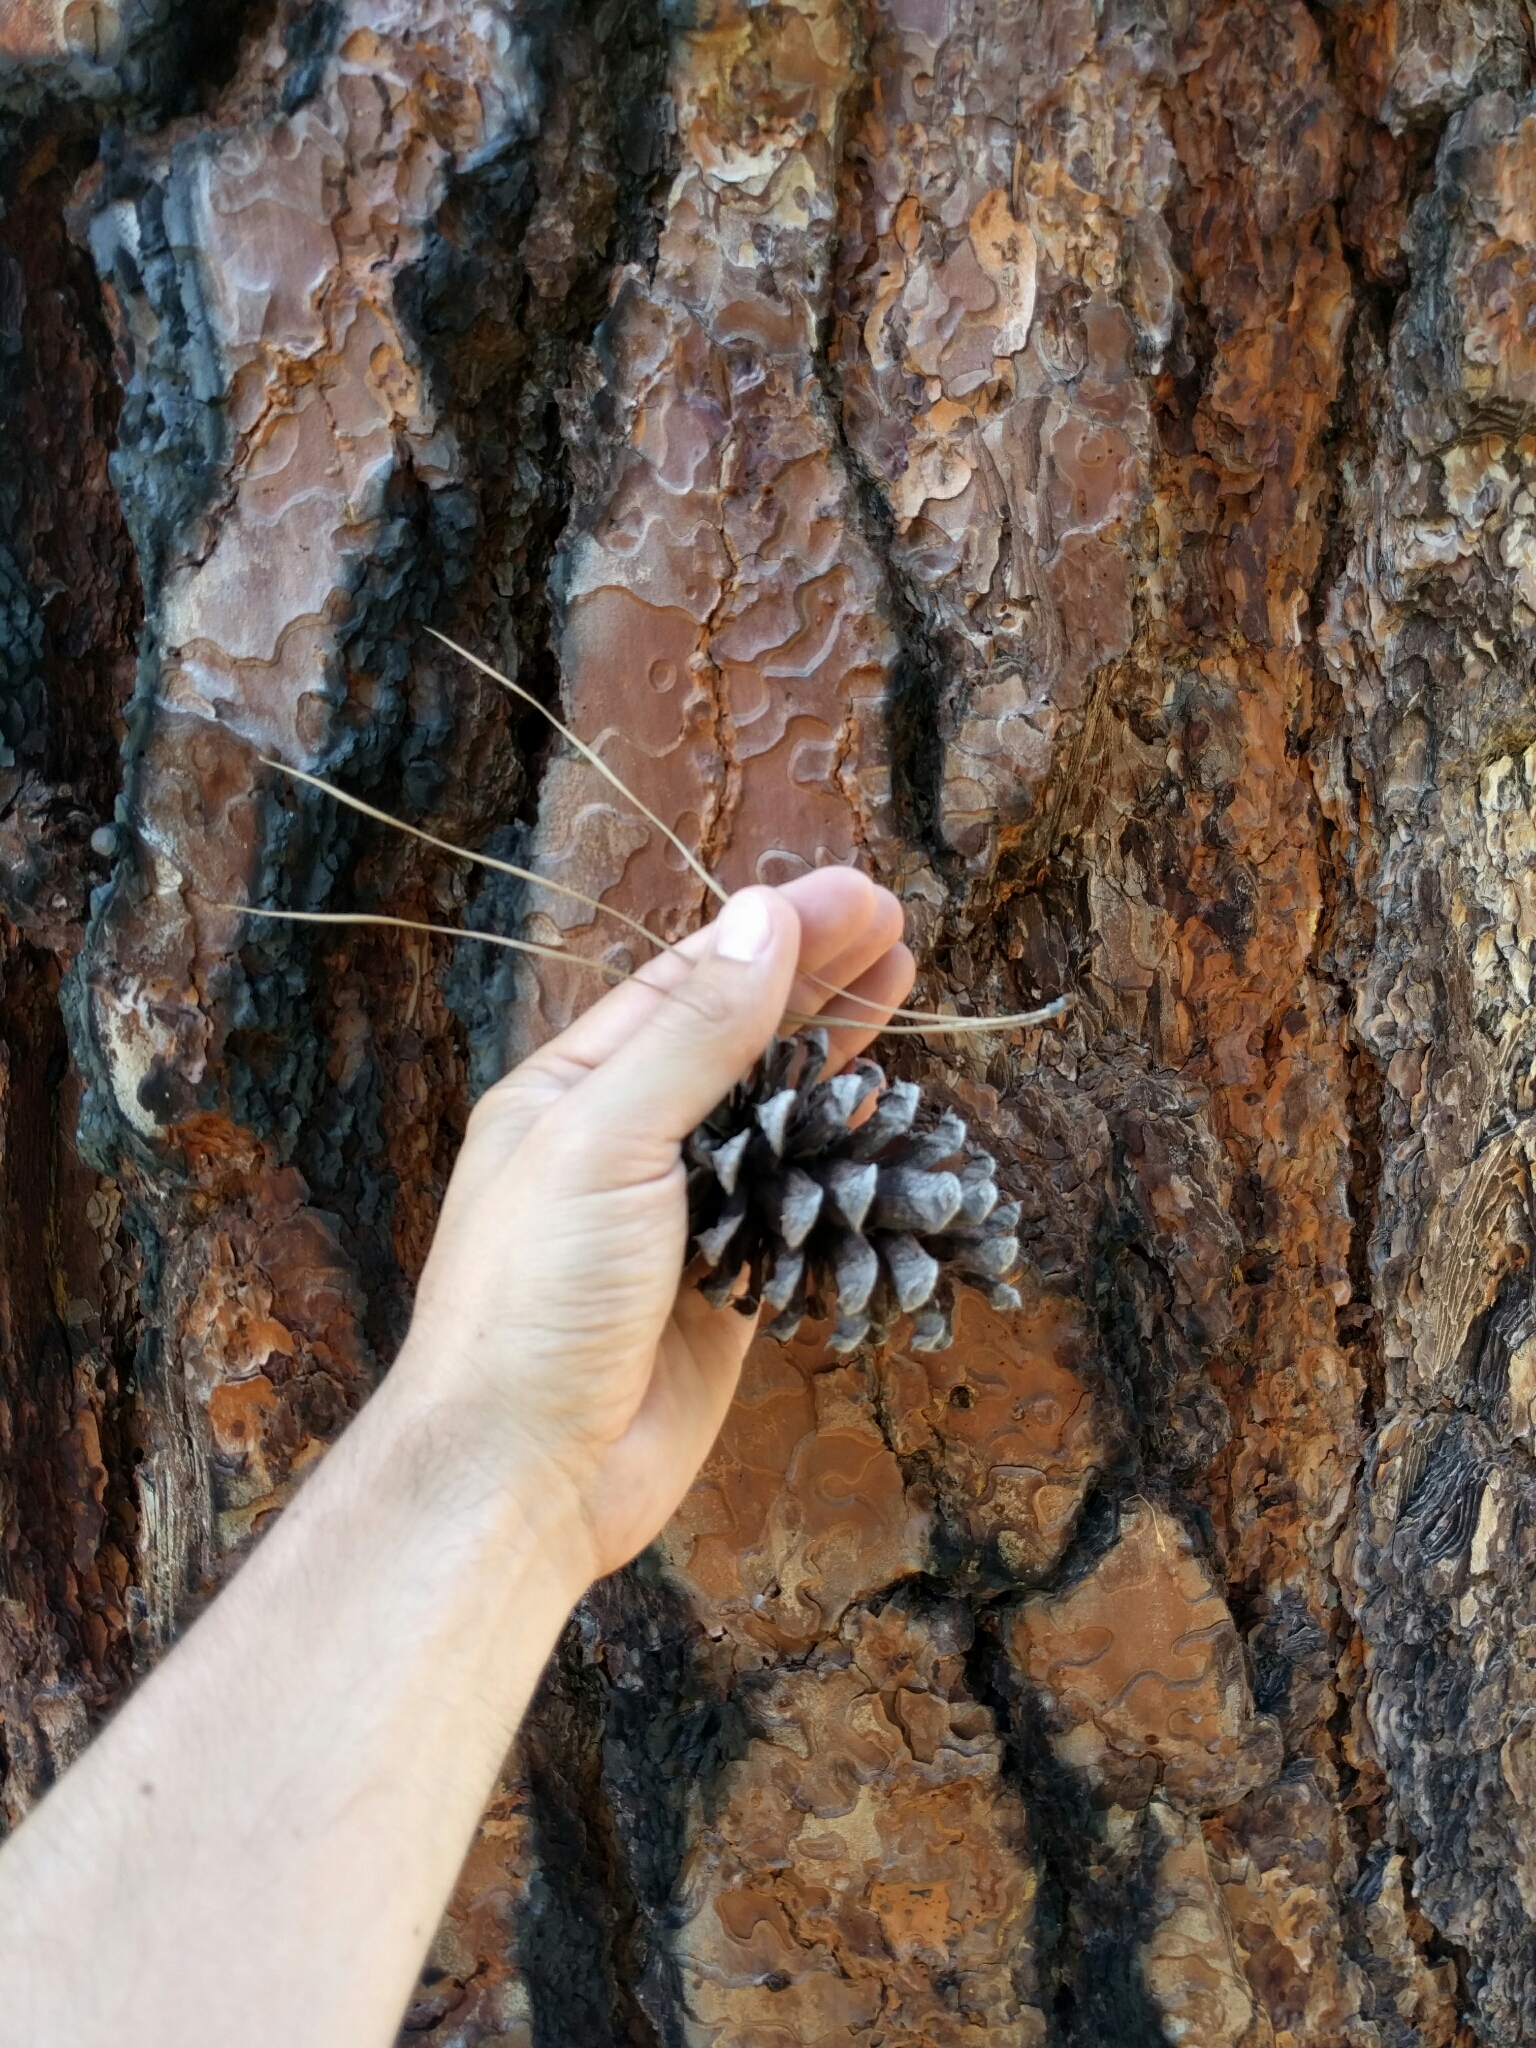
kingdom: Plantae
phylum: Tracheophyta
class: Pinopsida
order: Pinales
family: Pinaceae
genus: Pinus
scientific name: Pinus ponderosa
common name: Western yellow-pine
